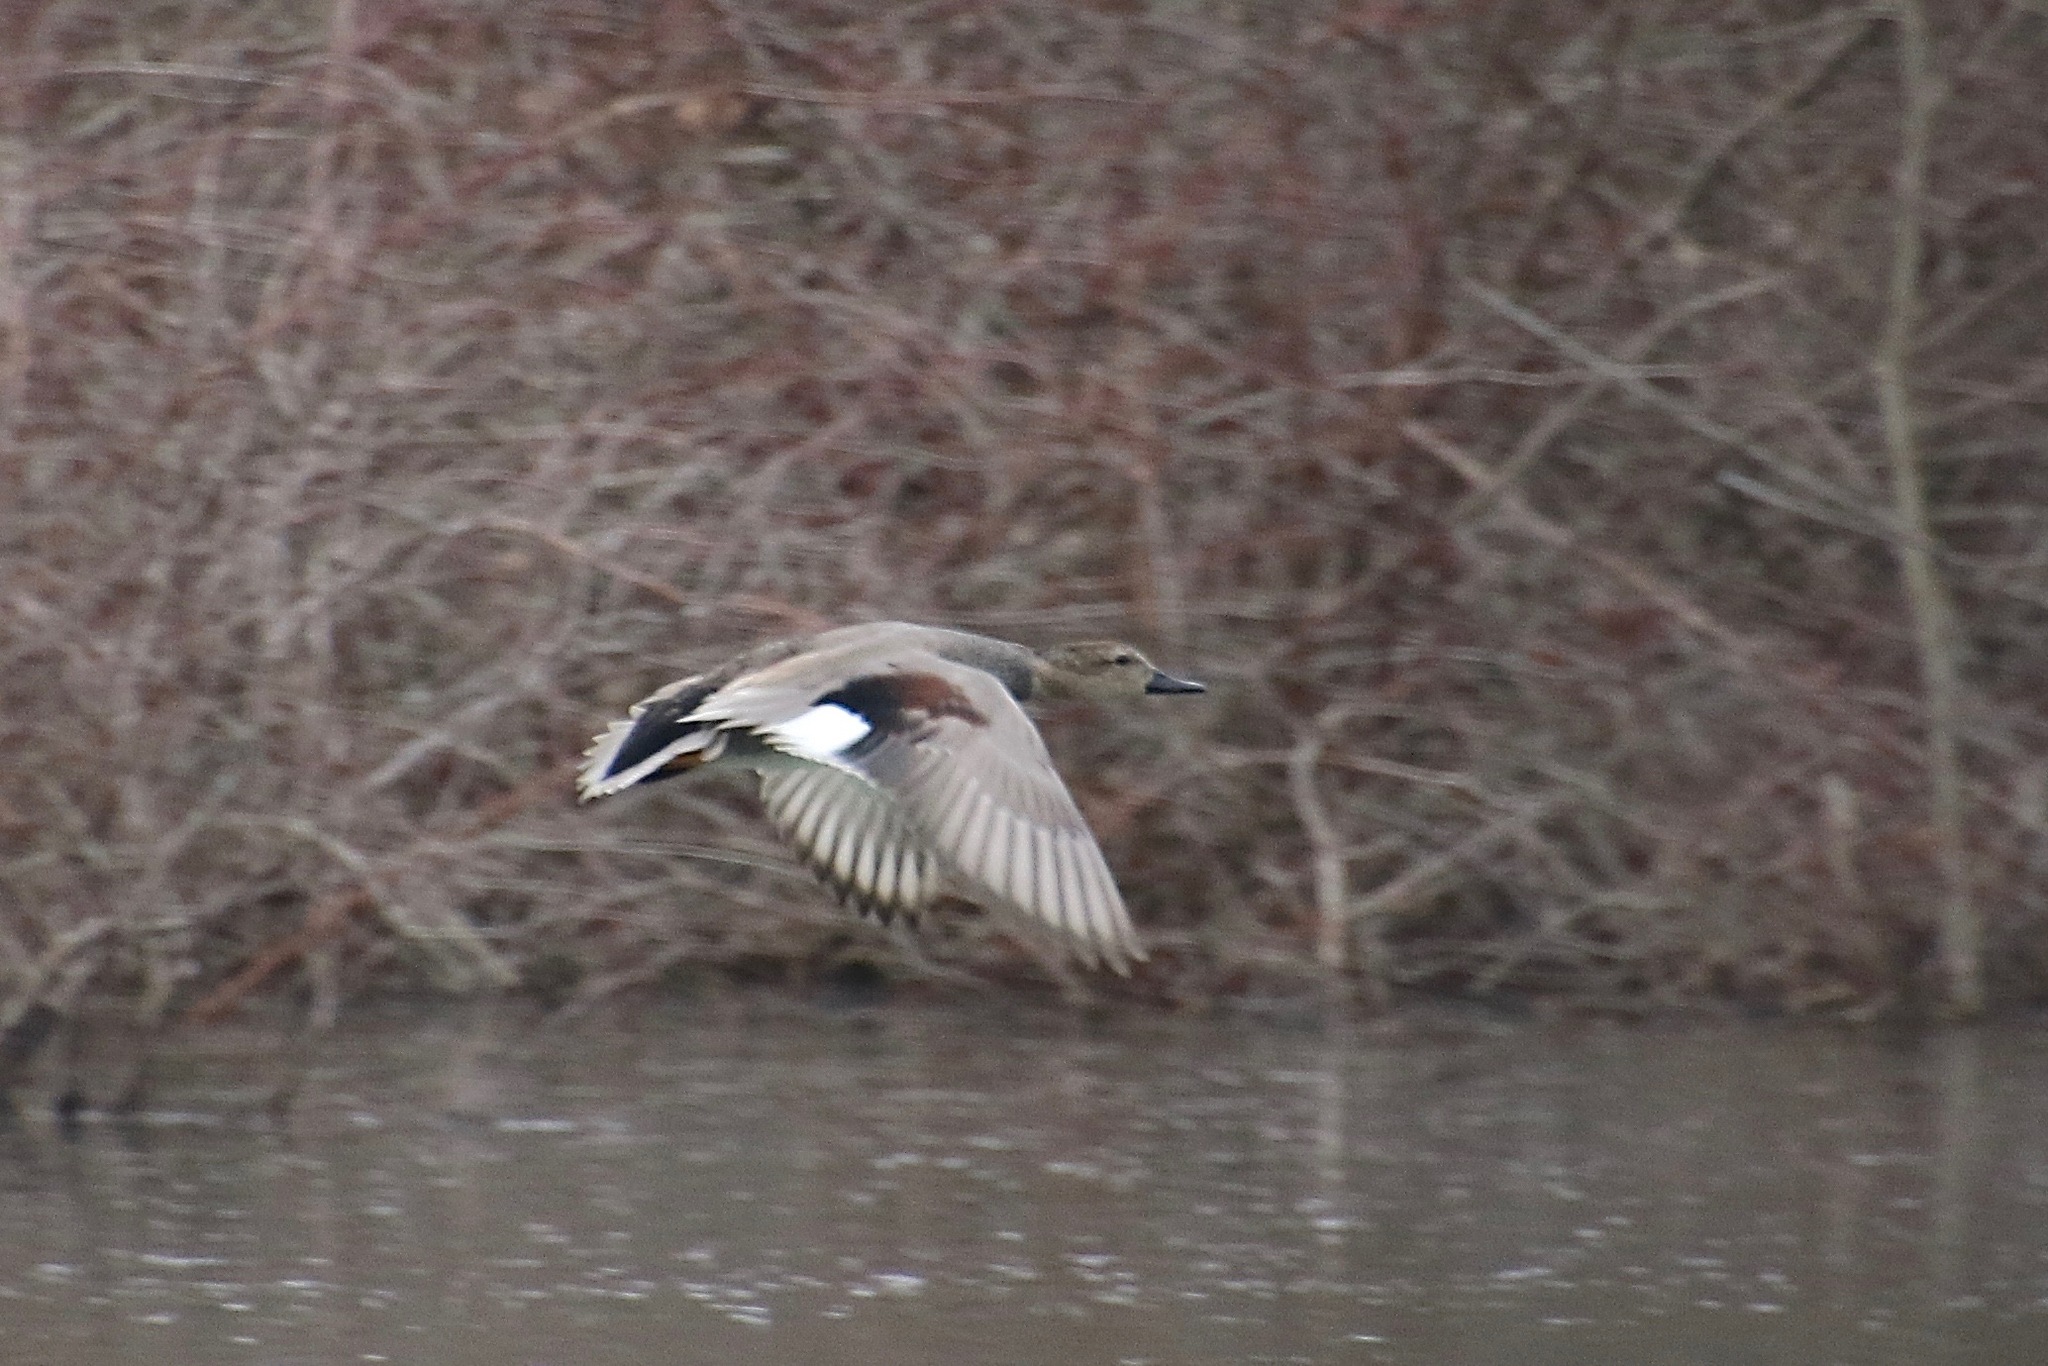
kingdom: Animalia
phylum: Chordata
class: Aves
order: Anseriformes
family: Anatidae
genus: Mareca
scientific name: Mareca strepera
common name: Gadwall
